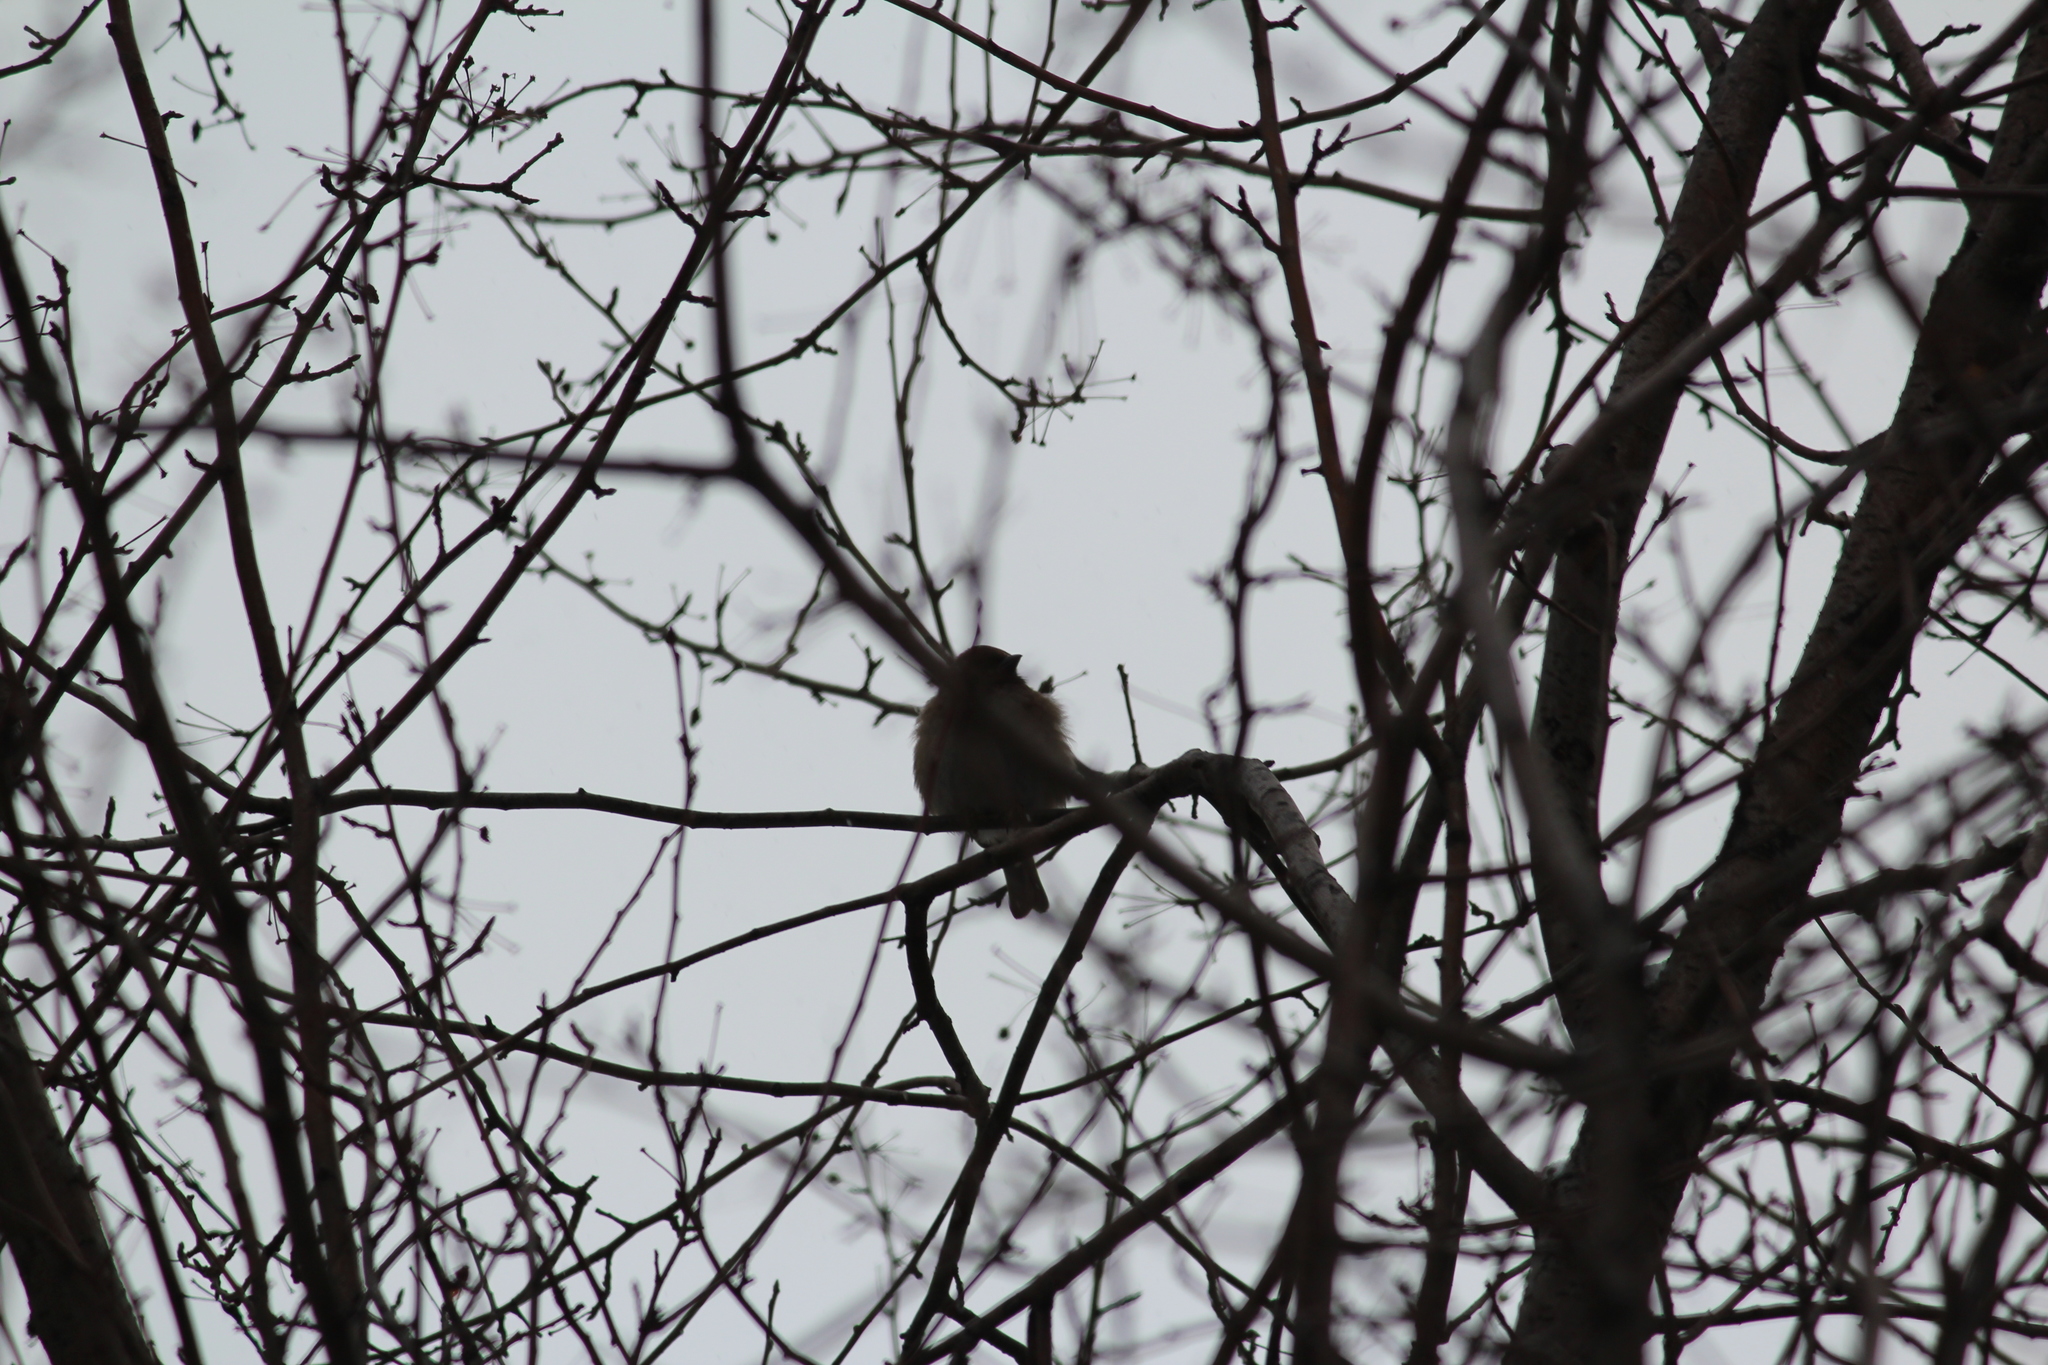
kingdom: Animalia
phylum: Chordata
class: Aves
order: Passeriformes
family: Passeridae
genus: Passer
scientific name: Passer montanus
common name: Eurasian tree sparrow
